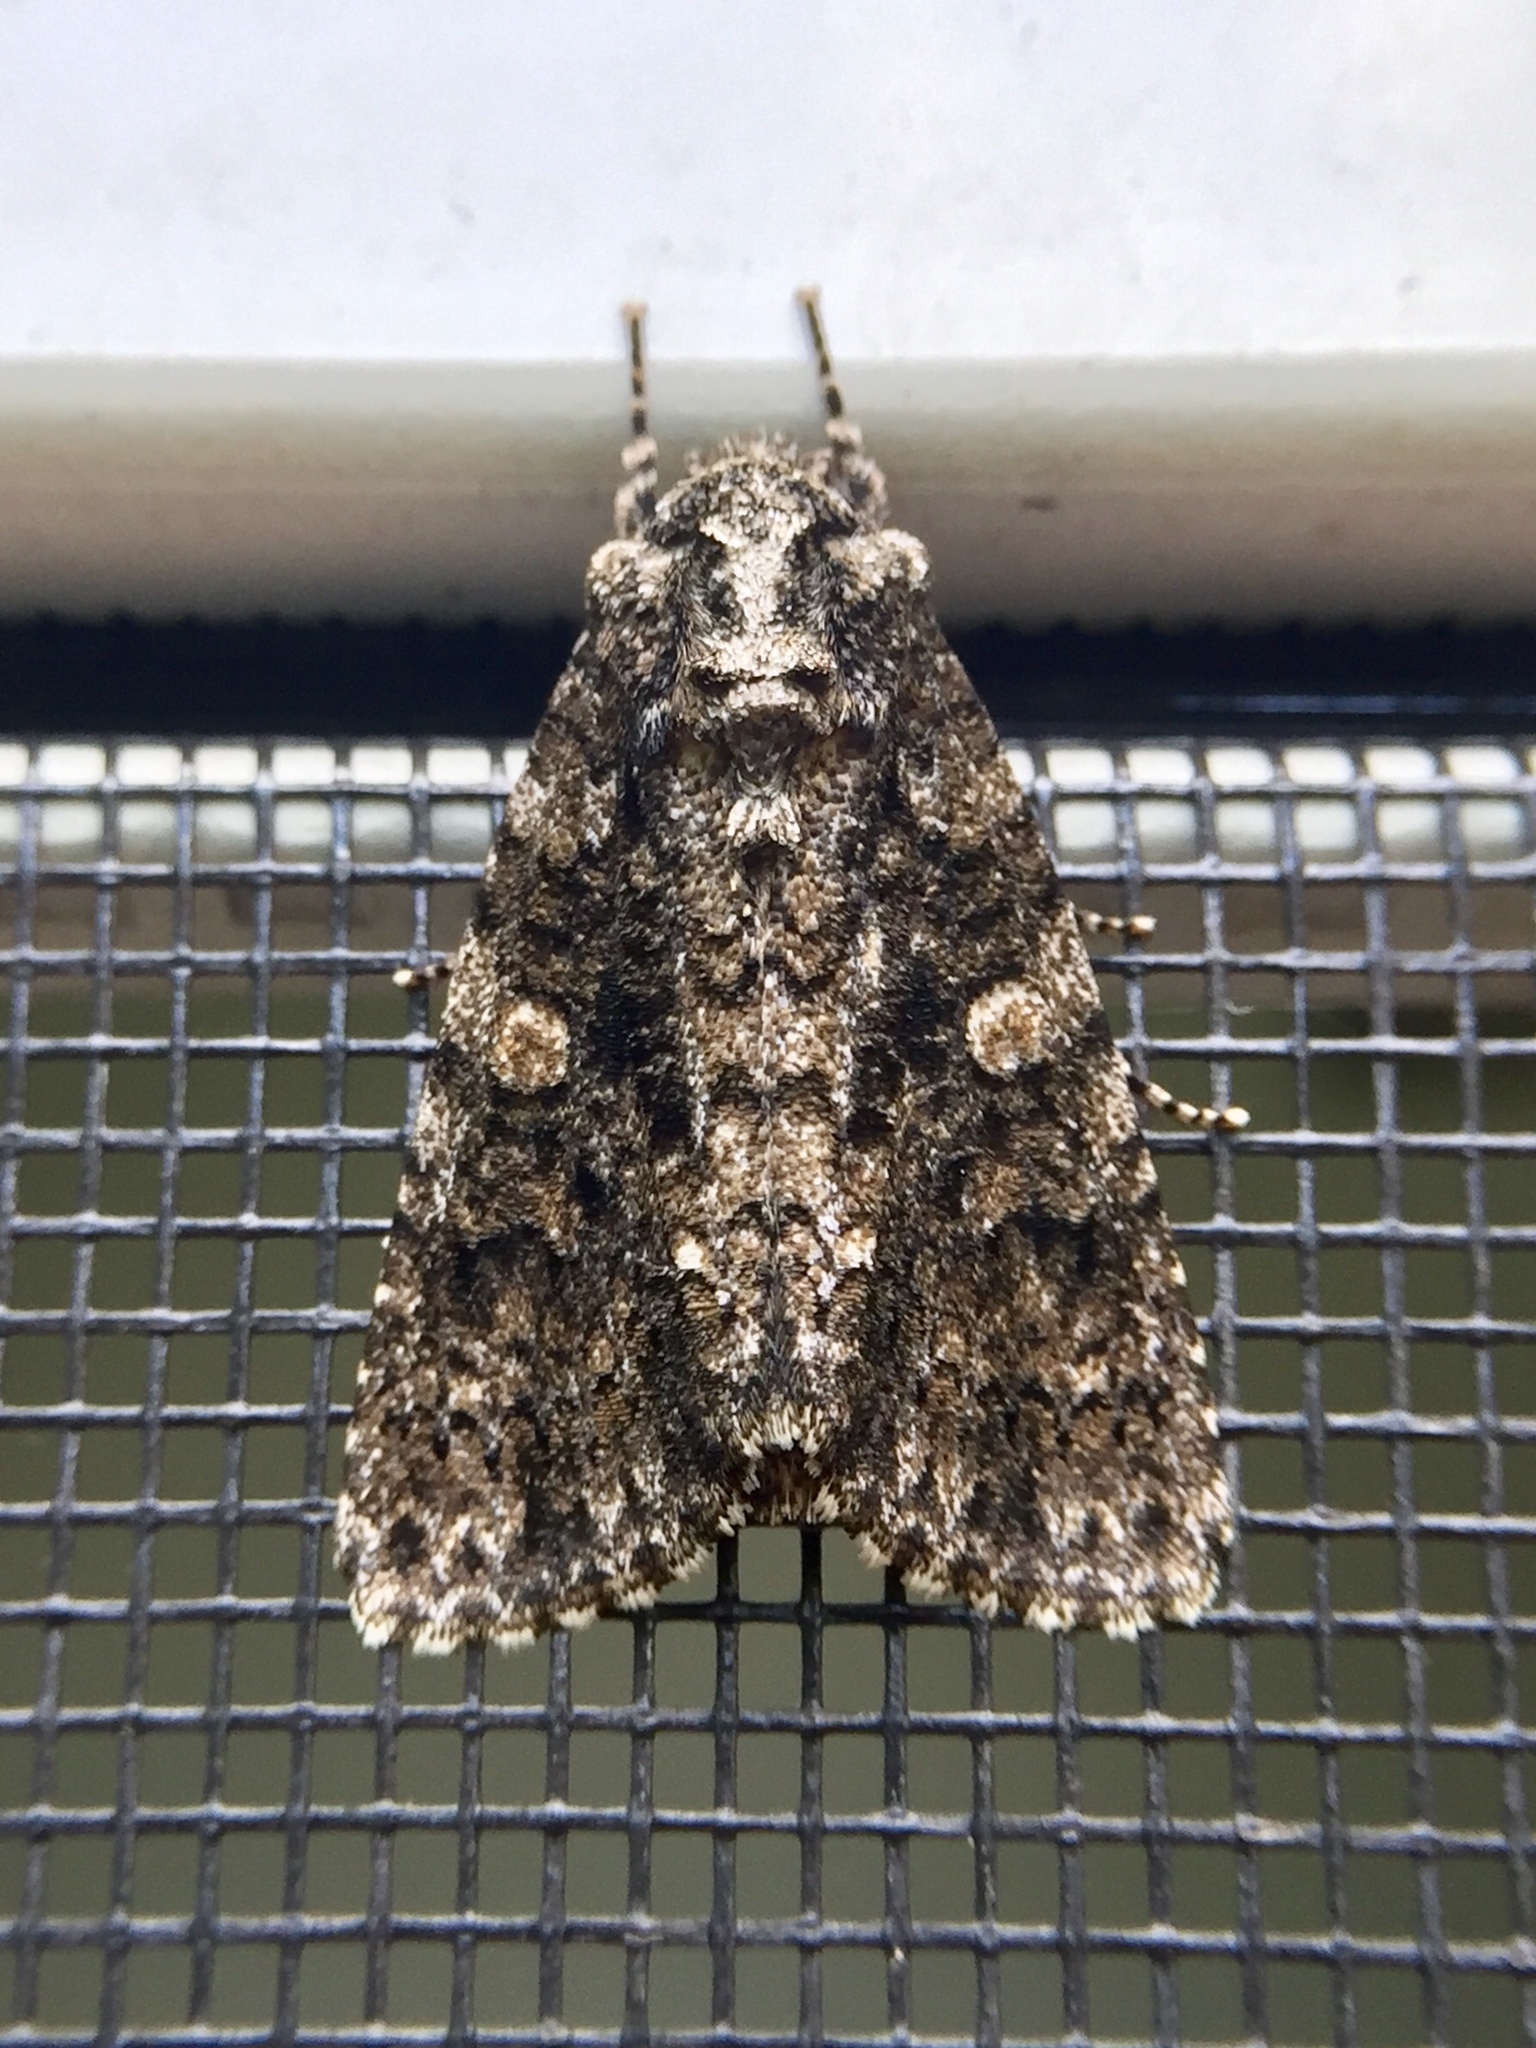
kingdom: Animalia
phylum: Arthropoda
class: Insecta
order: Lepidoptera
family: Noctuidae
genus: Acronicta
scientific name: Acronicta afflicta
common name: Afflicted dagger moth
